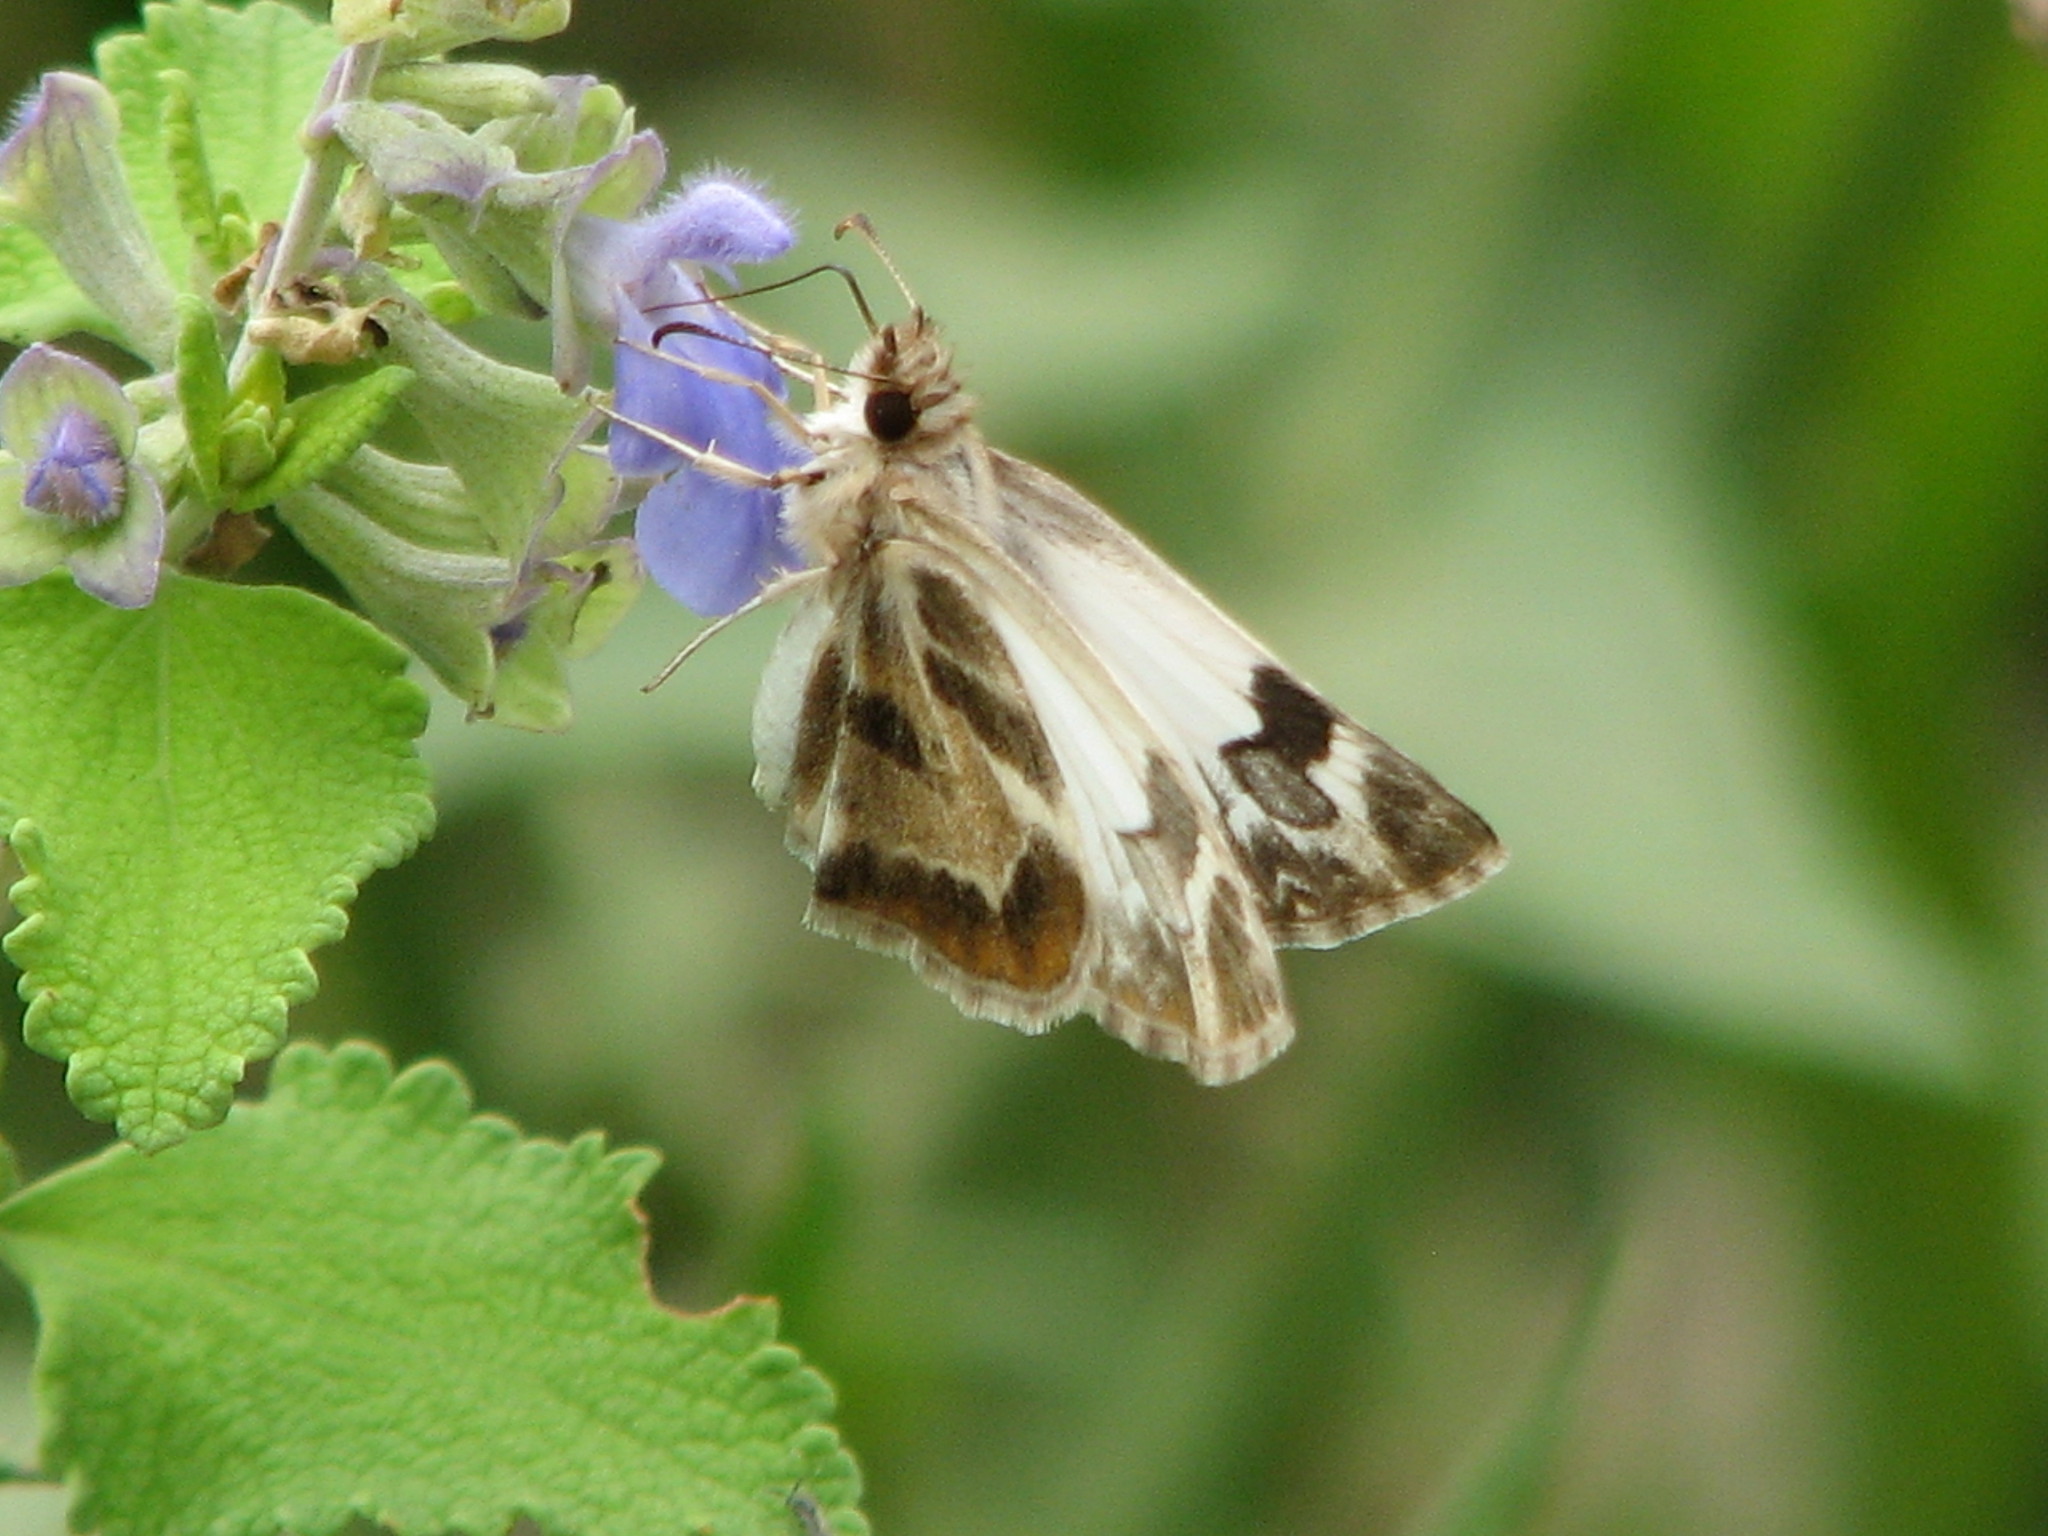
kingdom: Animalia
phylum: Arthropoda
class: Insecta
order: Lepidoptera
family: Hesperiidae
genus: Heliopetes
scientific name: Heliopetes macaira
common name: Turk's-cap white-skipper
